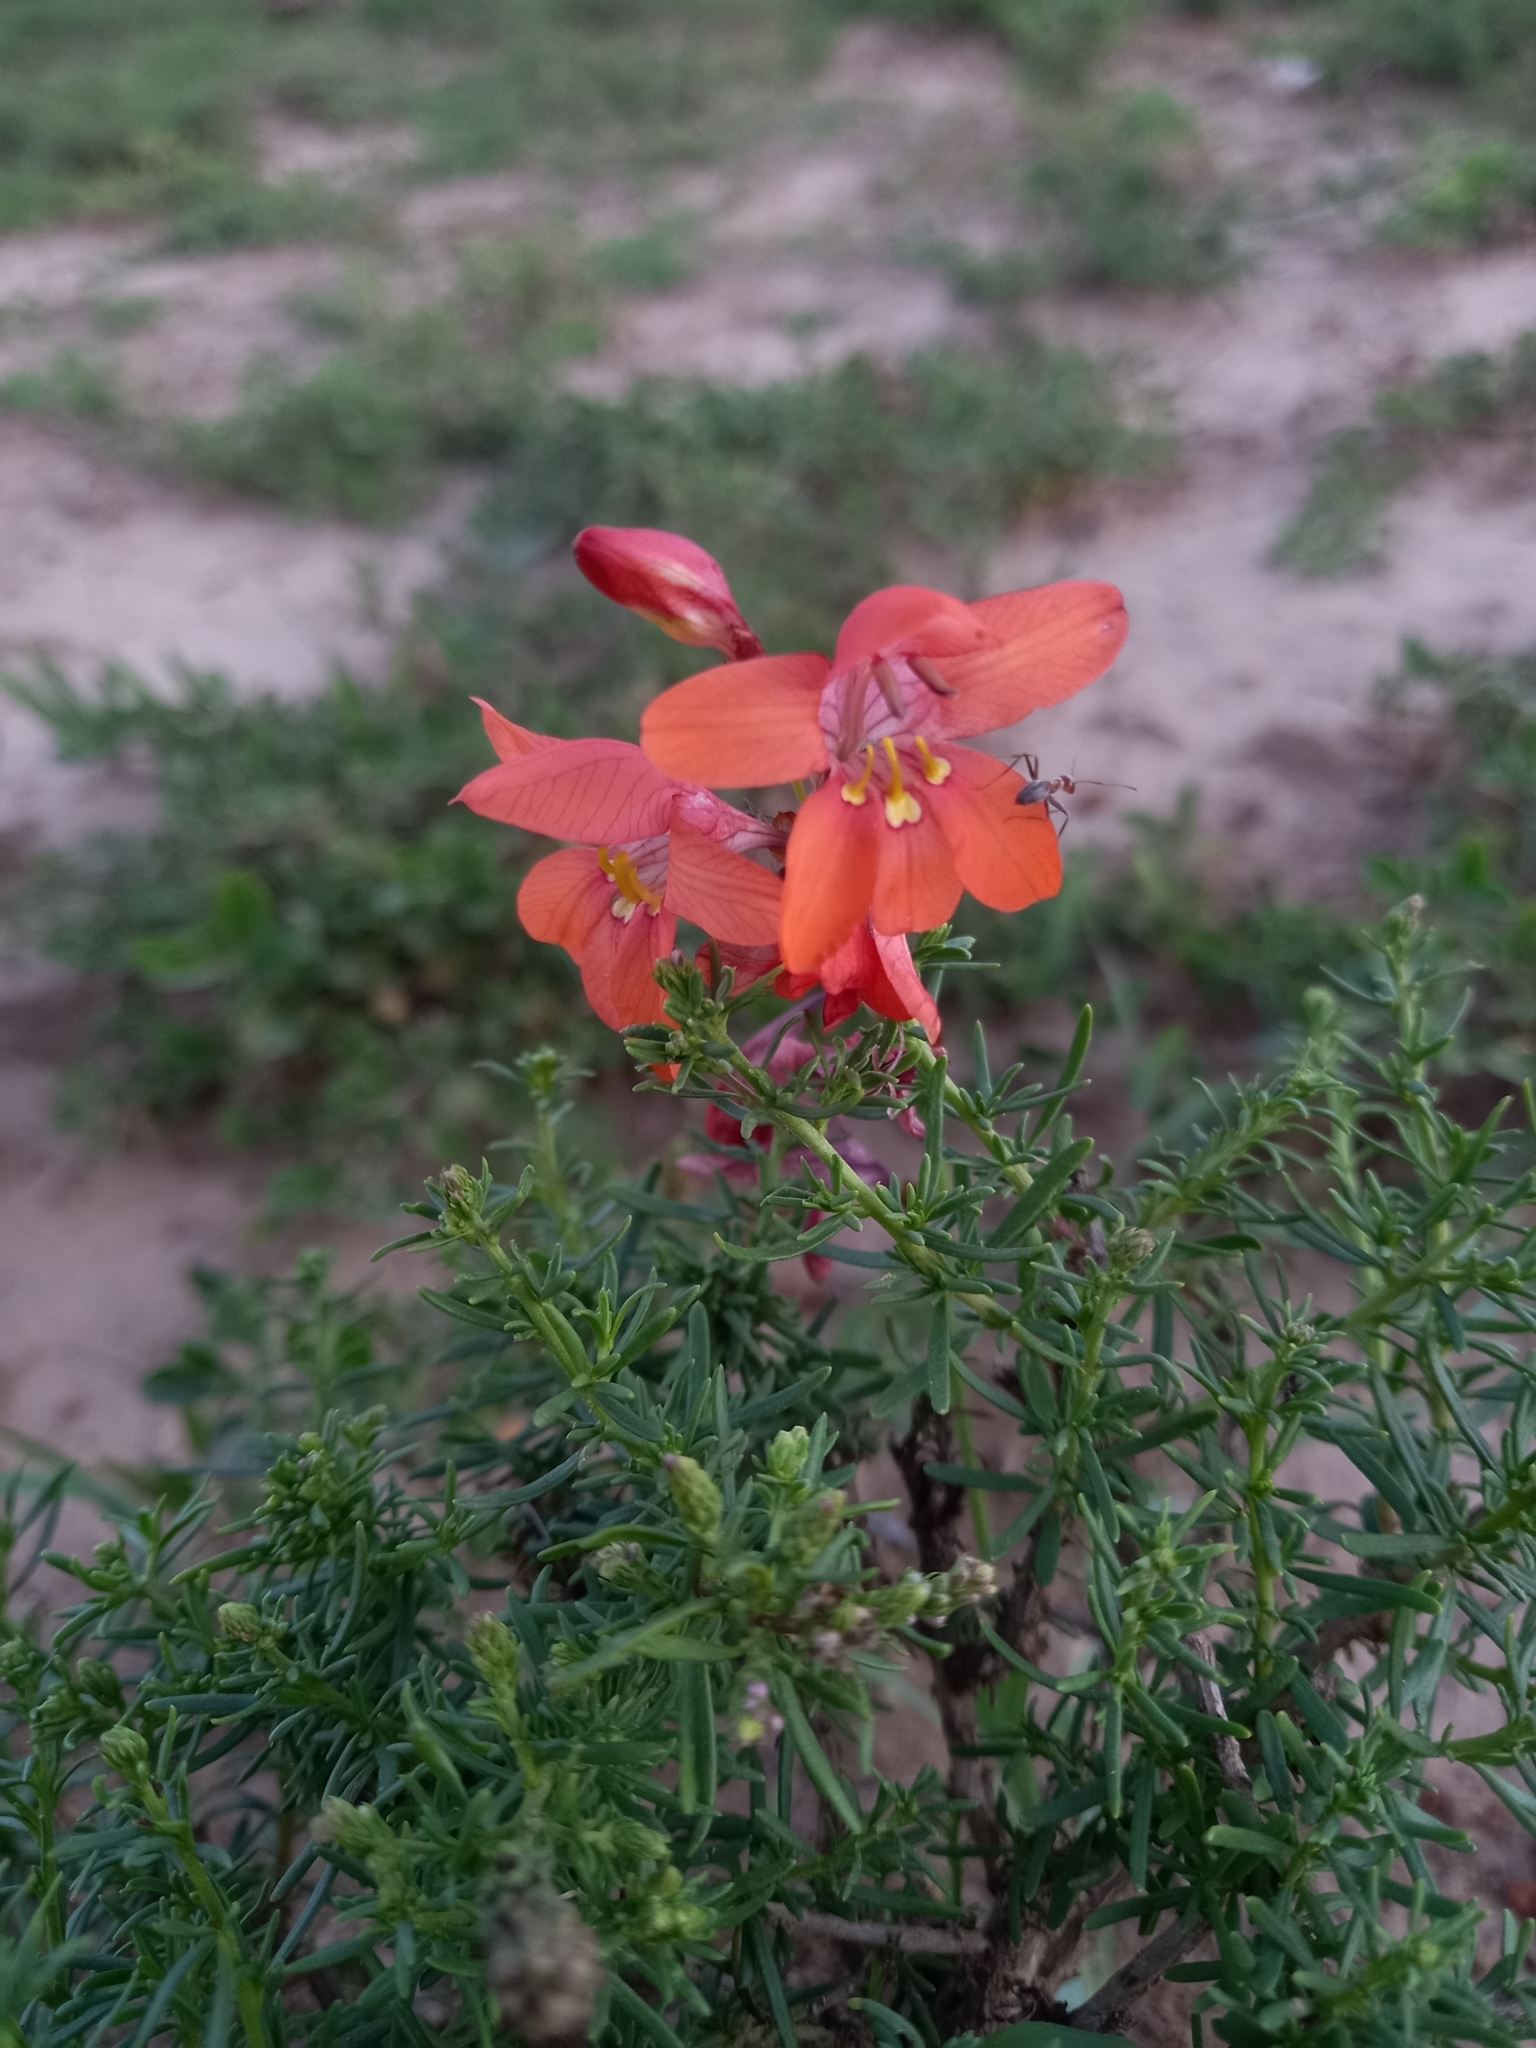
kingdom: Plantae
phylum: Tracheophyta
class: Liliopsida
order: Asparagales
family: Iridaceae
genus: Tritonia
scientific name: Tritonia laxifolia
